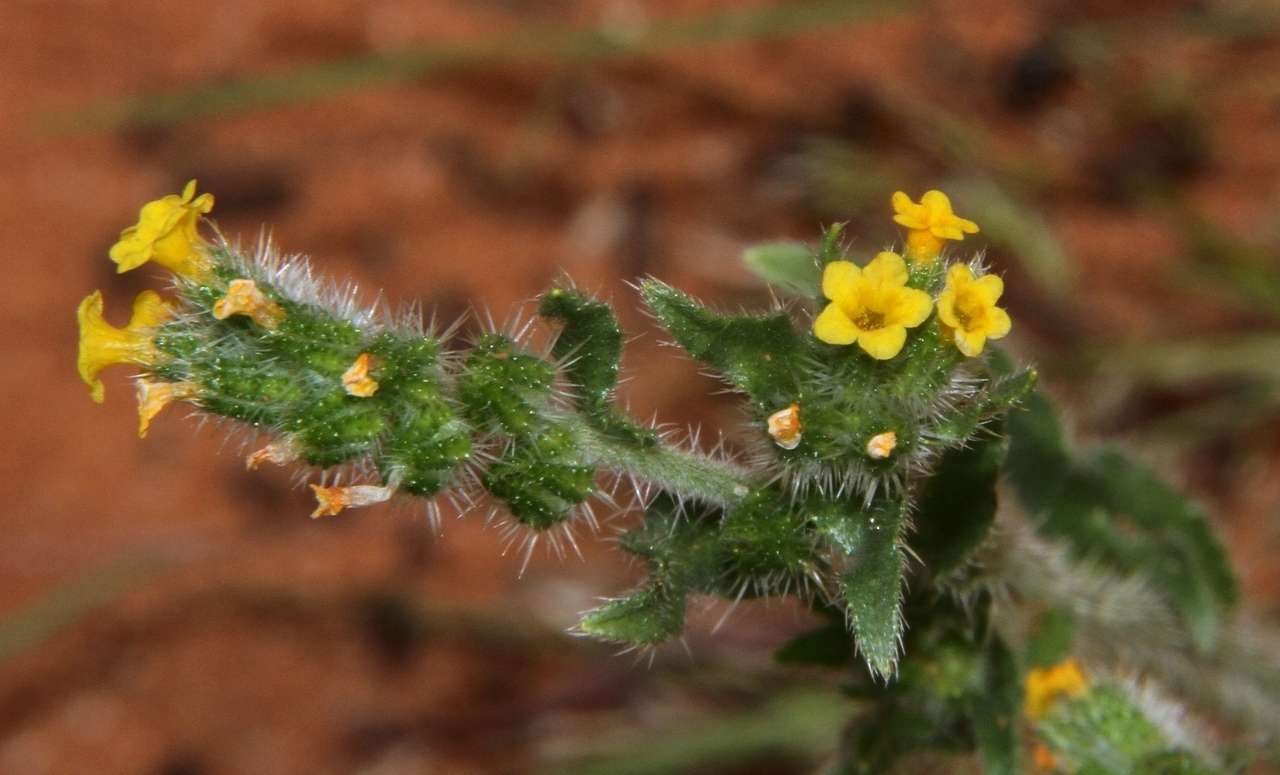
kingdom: Plantae
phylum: Tracheophyta
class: Magnoliopsida
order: Boraginales
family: Boraginaceae
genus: Neatostema
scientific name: Neatostema apulum
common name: Hairy sheepweed
